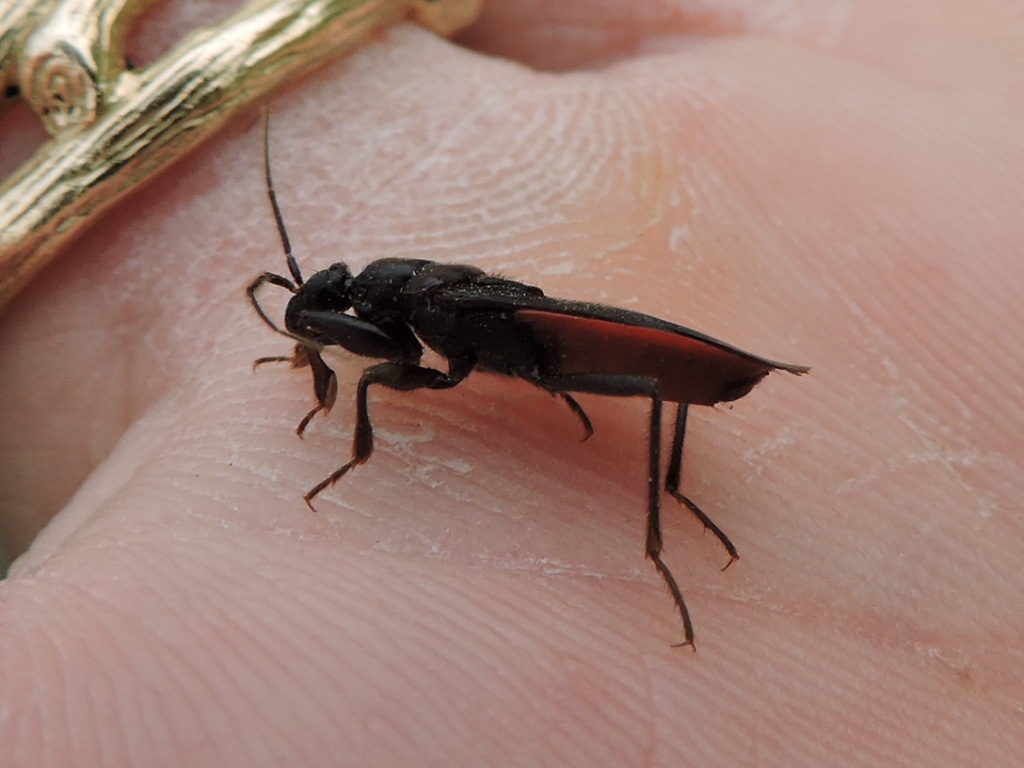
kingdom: Animalia
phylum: Arthropoda
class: Insecta
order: Hemiptera
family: Reduviidae
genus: Melanolestes
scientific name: Melanolestes picipes
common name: Assassin bug
